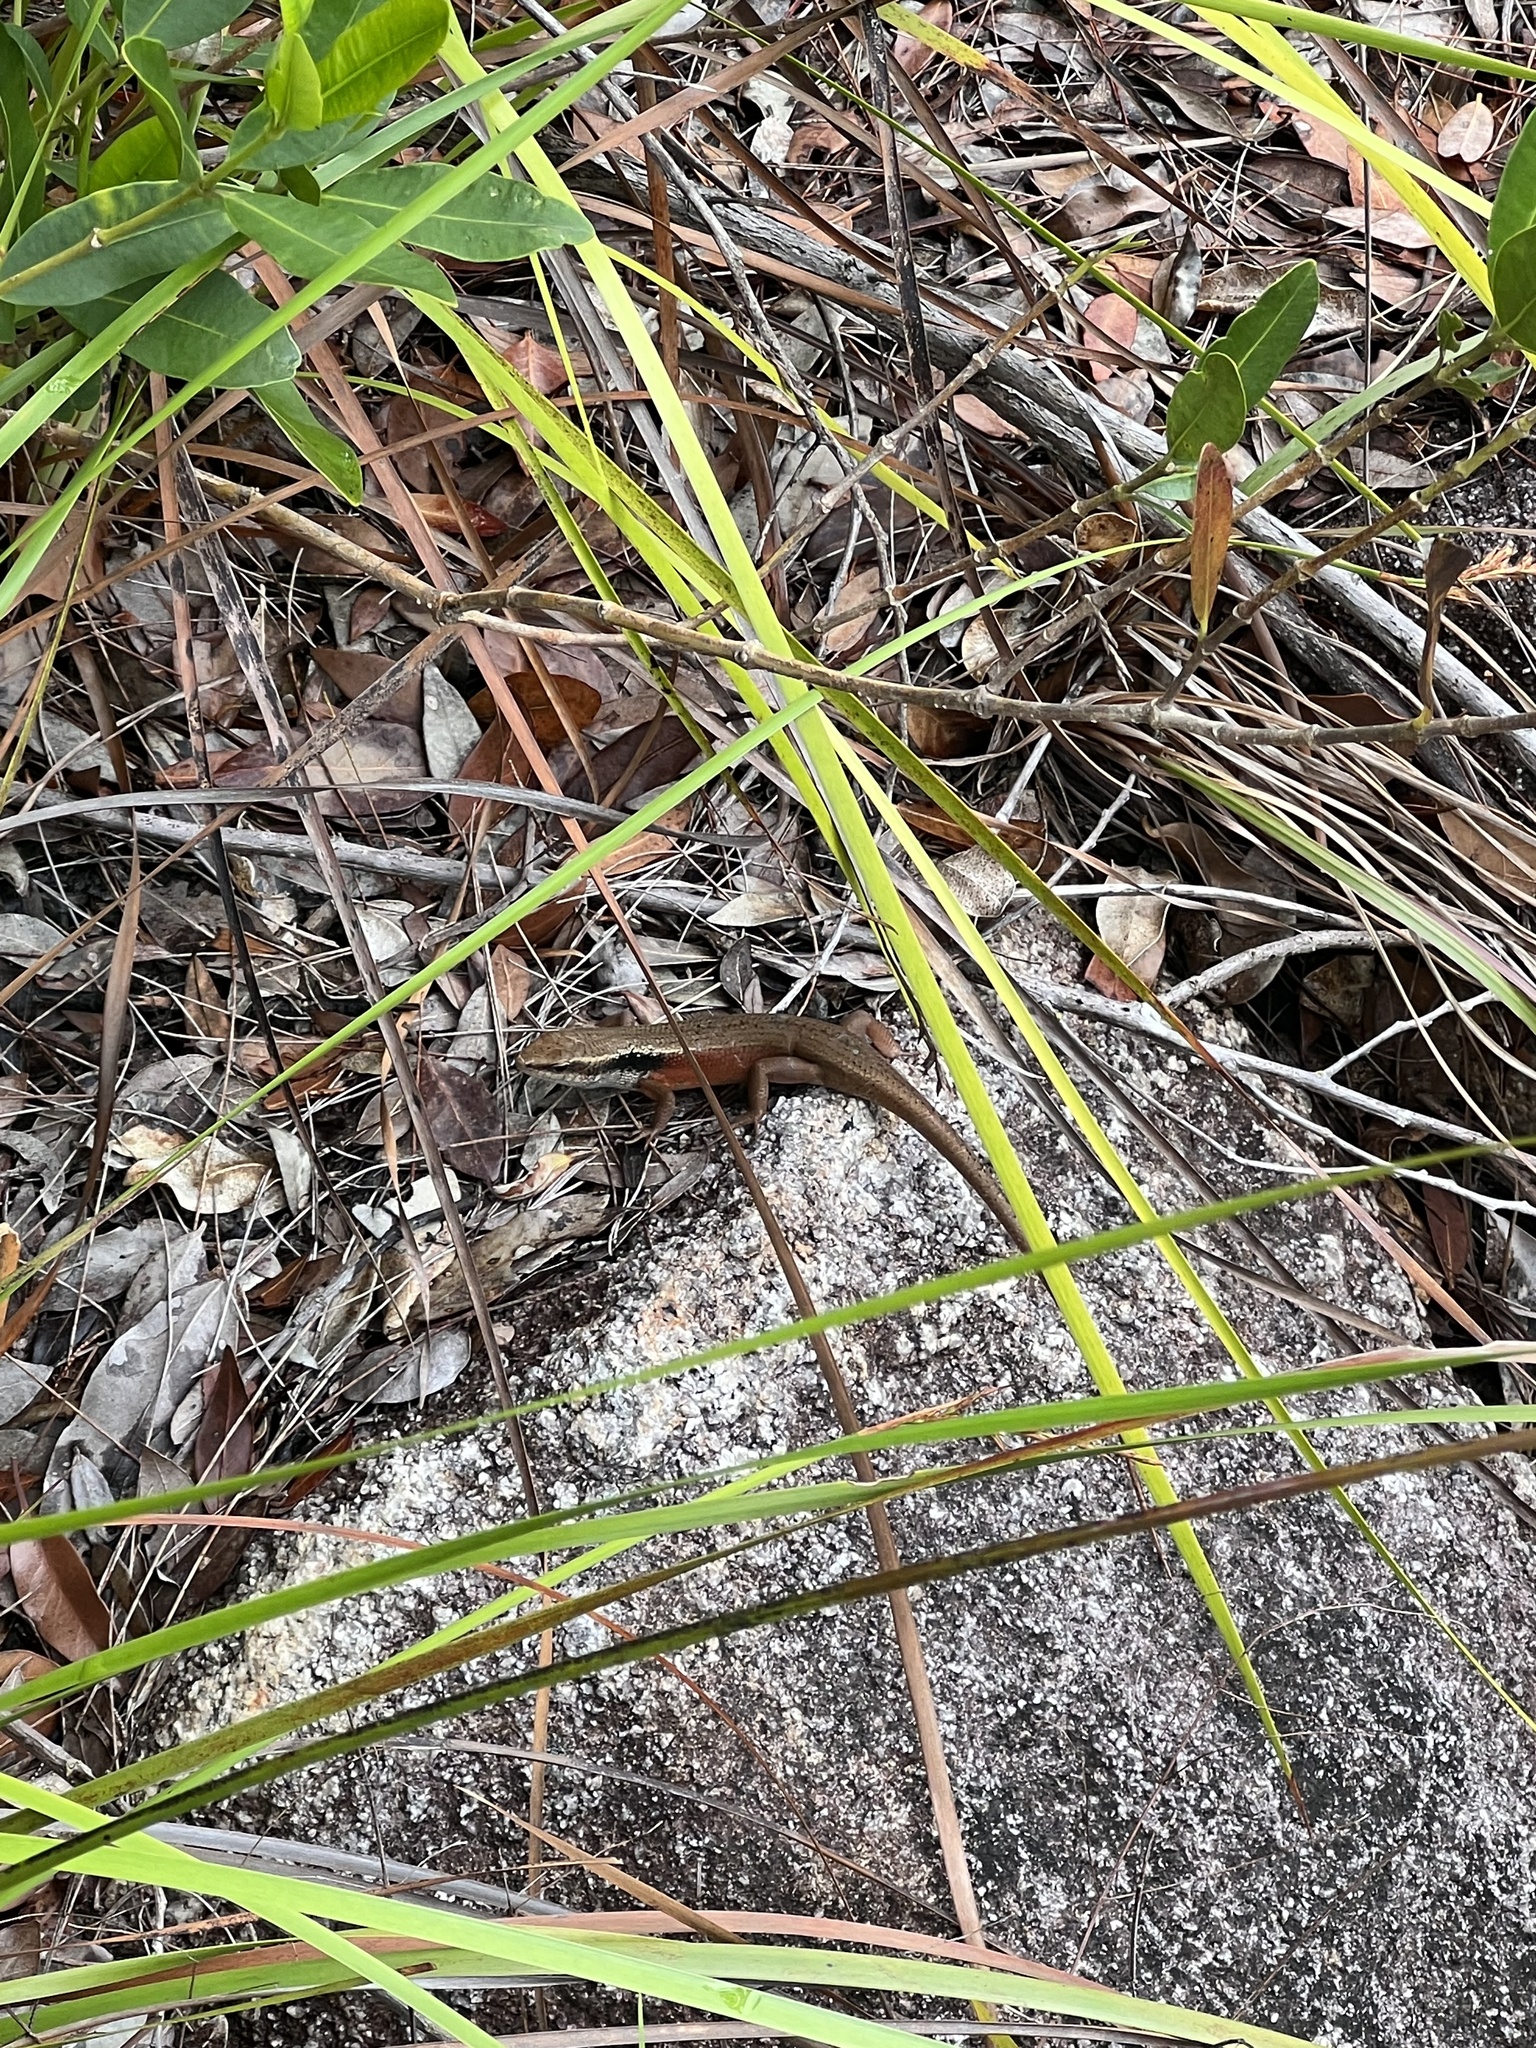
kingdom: Animalia
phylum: Chordata
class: Squamata
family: Scincidae
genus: Carlia
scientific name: Carlia longipes
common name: Closed-litter rainbow-skink
